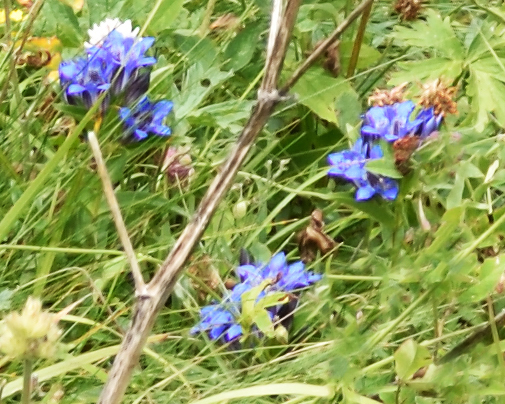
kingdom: Plantae
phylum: Tracheophyta
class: Magnoliopsida
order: Gentianales
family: Gentianaceae
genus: Gentiana
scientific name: Gentiana septemfida
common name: Crested gentian
